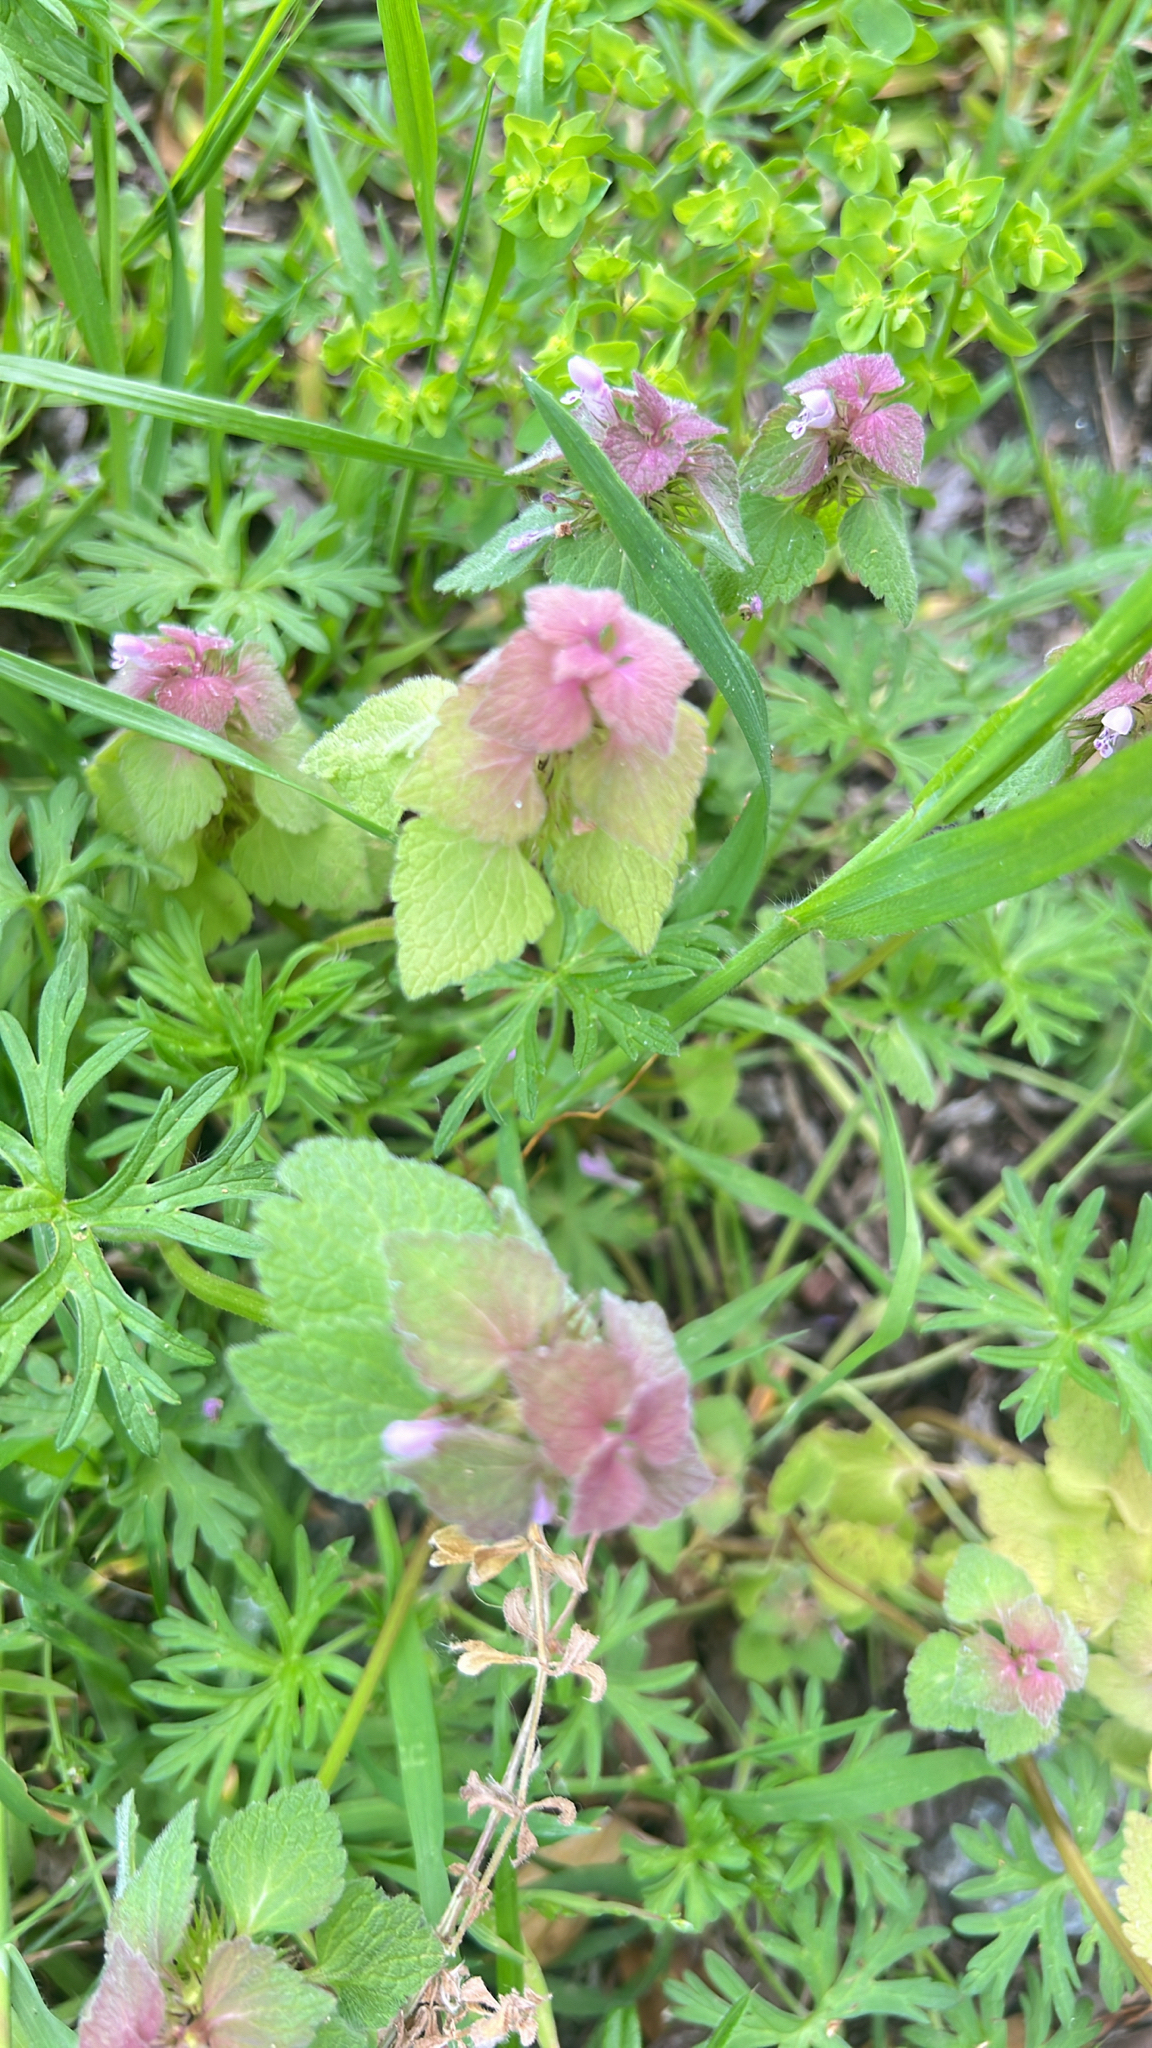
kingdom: Plantae
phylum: Tracheophyta
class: Magnoliopsida
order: Lamiales
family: Lamiaceae
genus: Lamium
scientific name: Lamium purpureum
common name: Red dead-nettle
